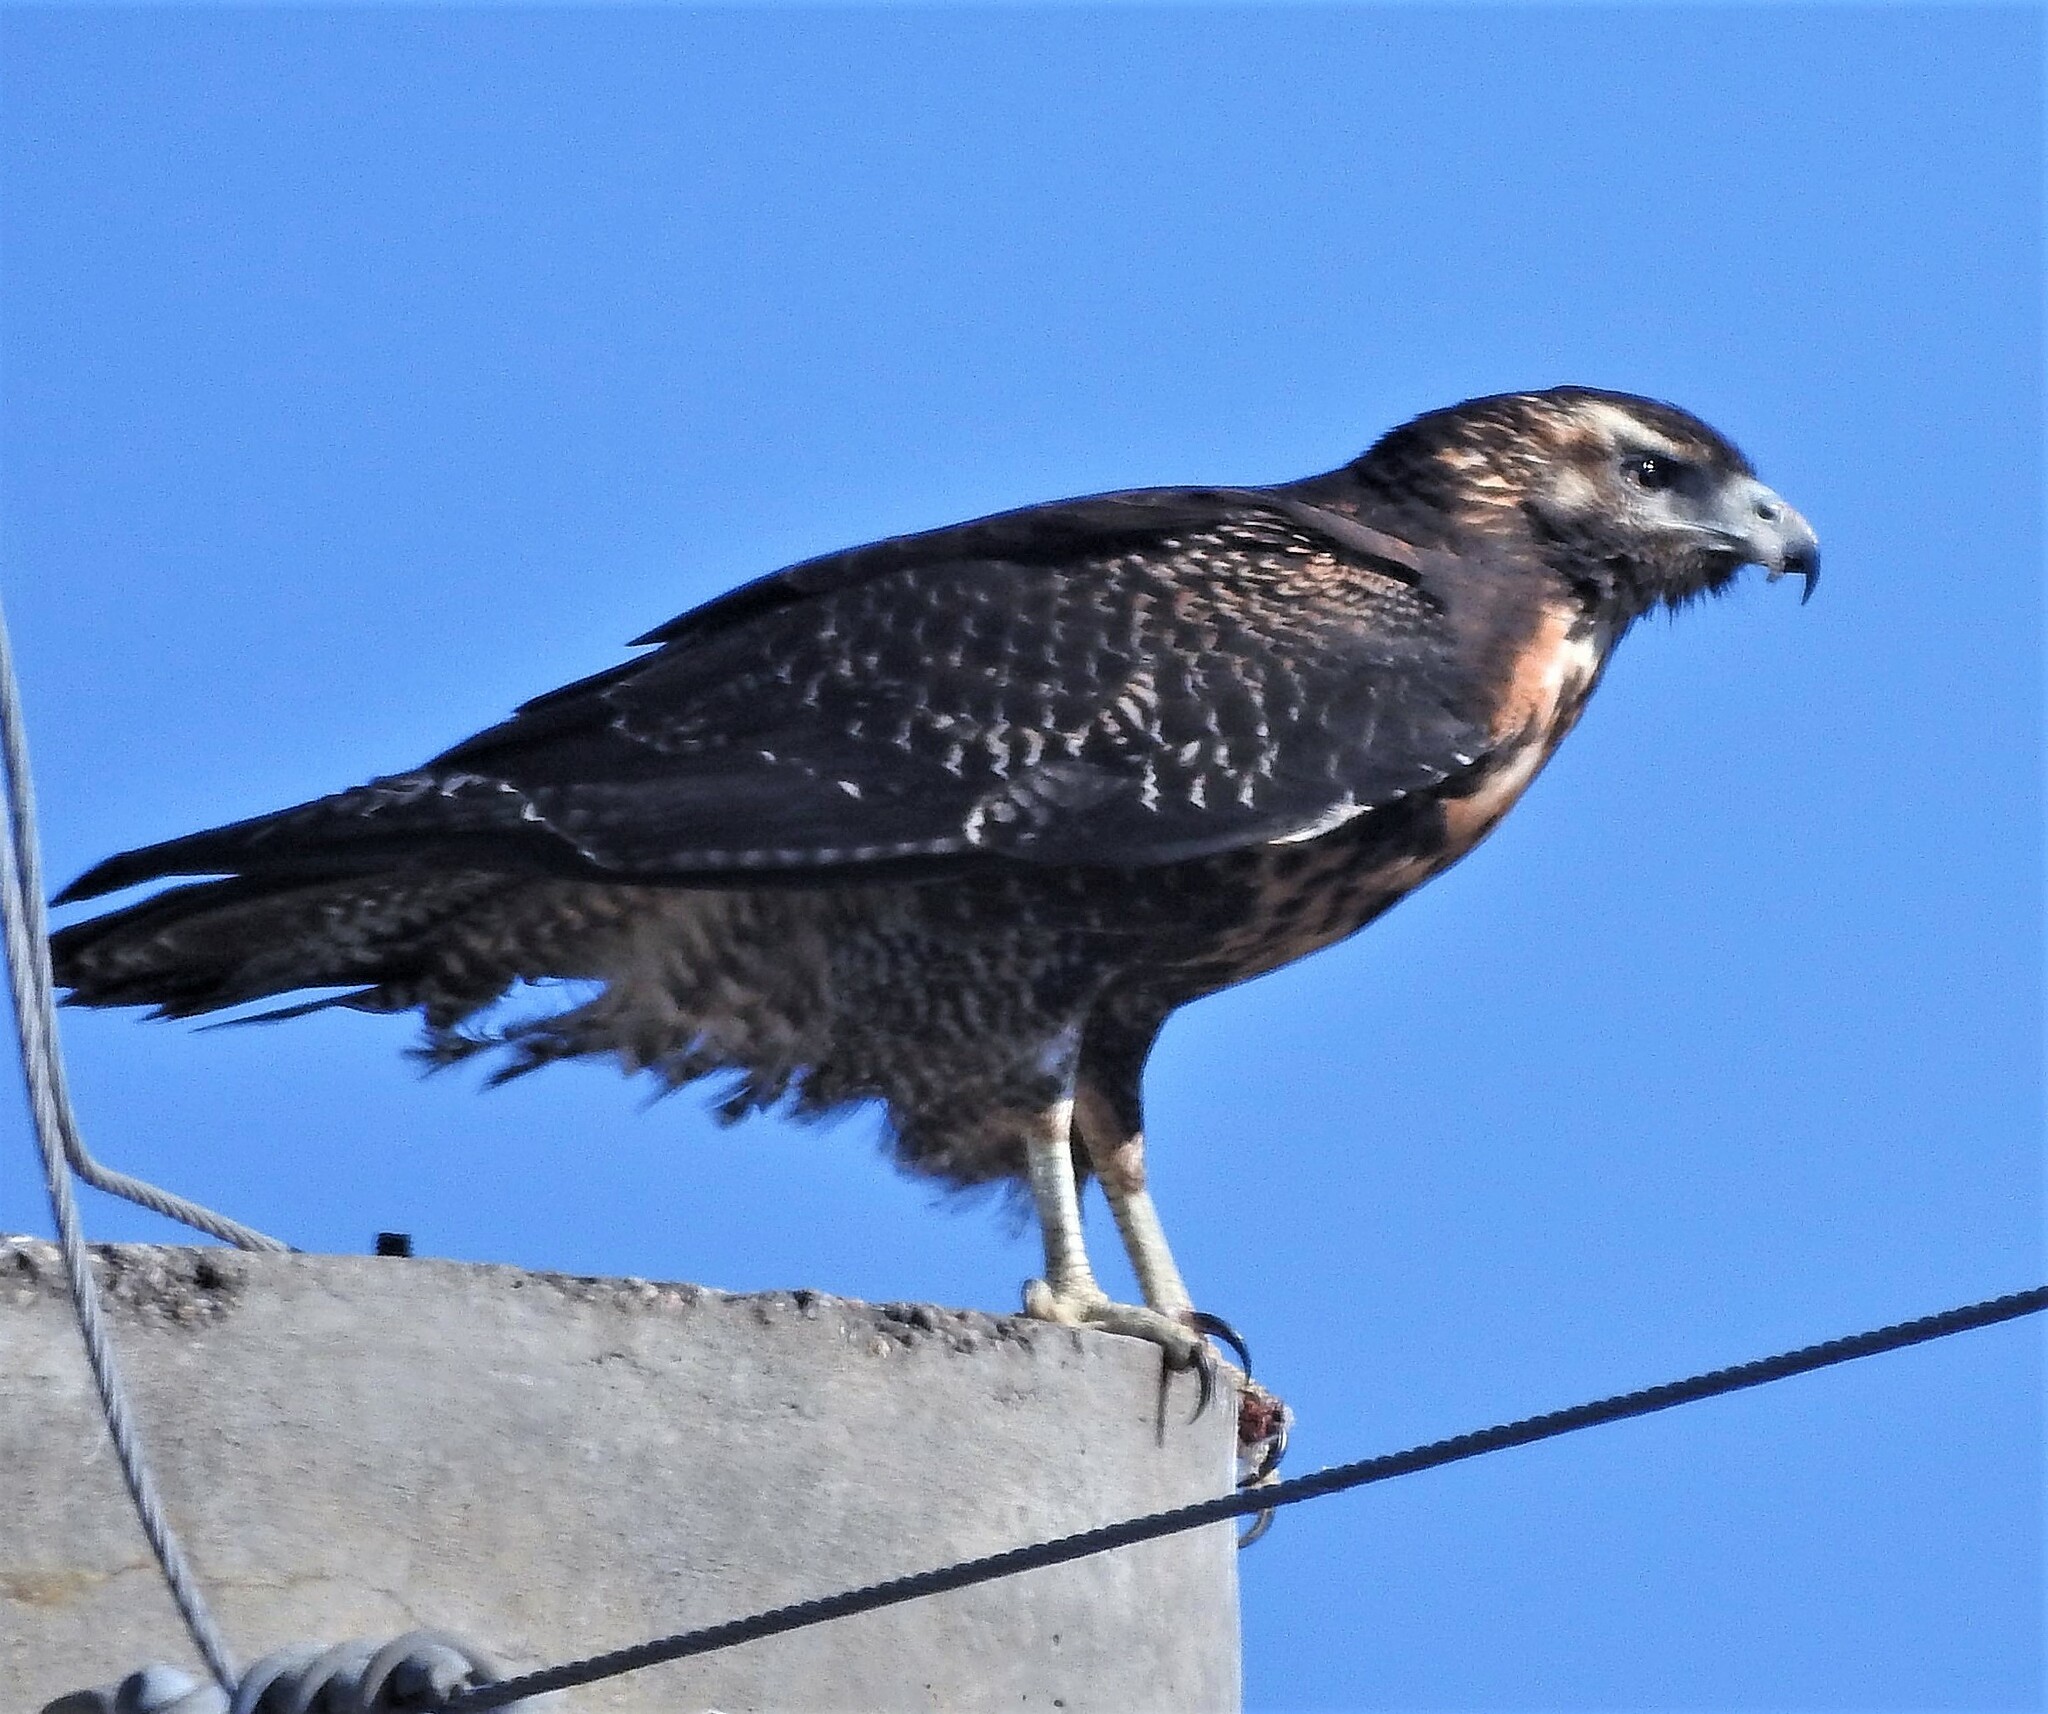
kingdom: Animalia
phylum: Chordata
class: Aves
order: Accipitriformes
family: Accipitridae
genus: Geranoaetus
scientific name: Geranoaetus melanoleucus
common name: Black-chested buzzard-eagle
